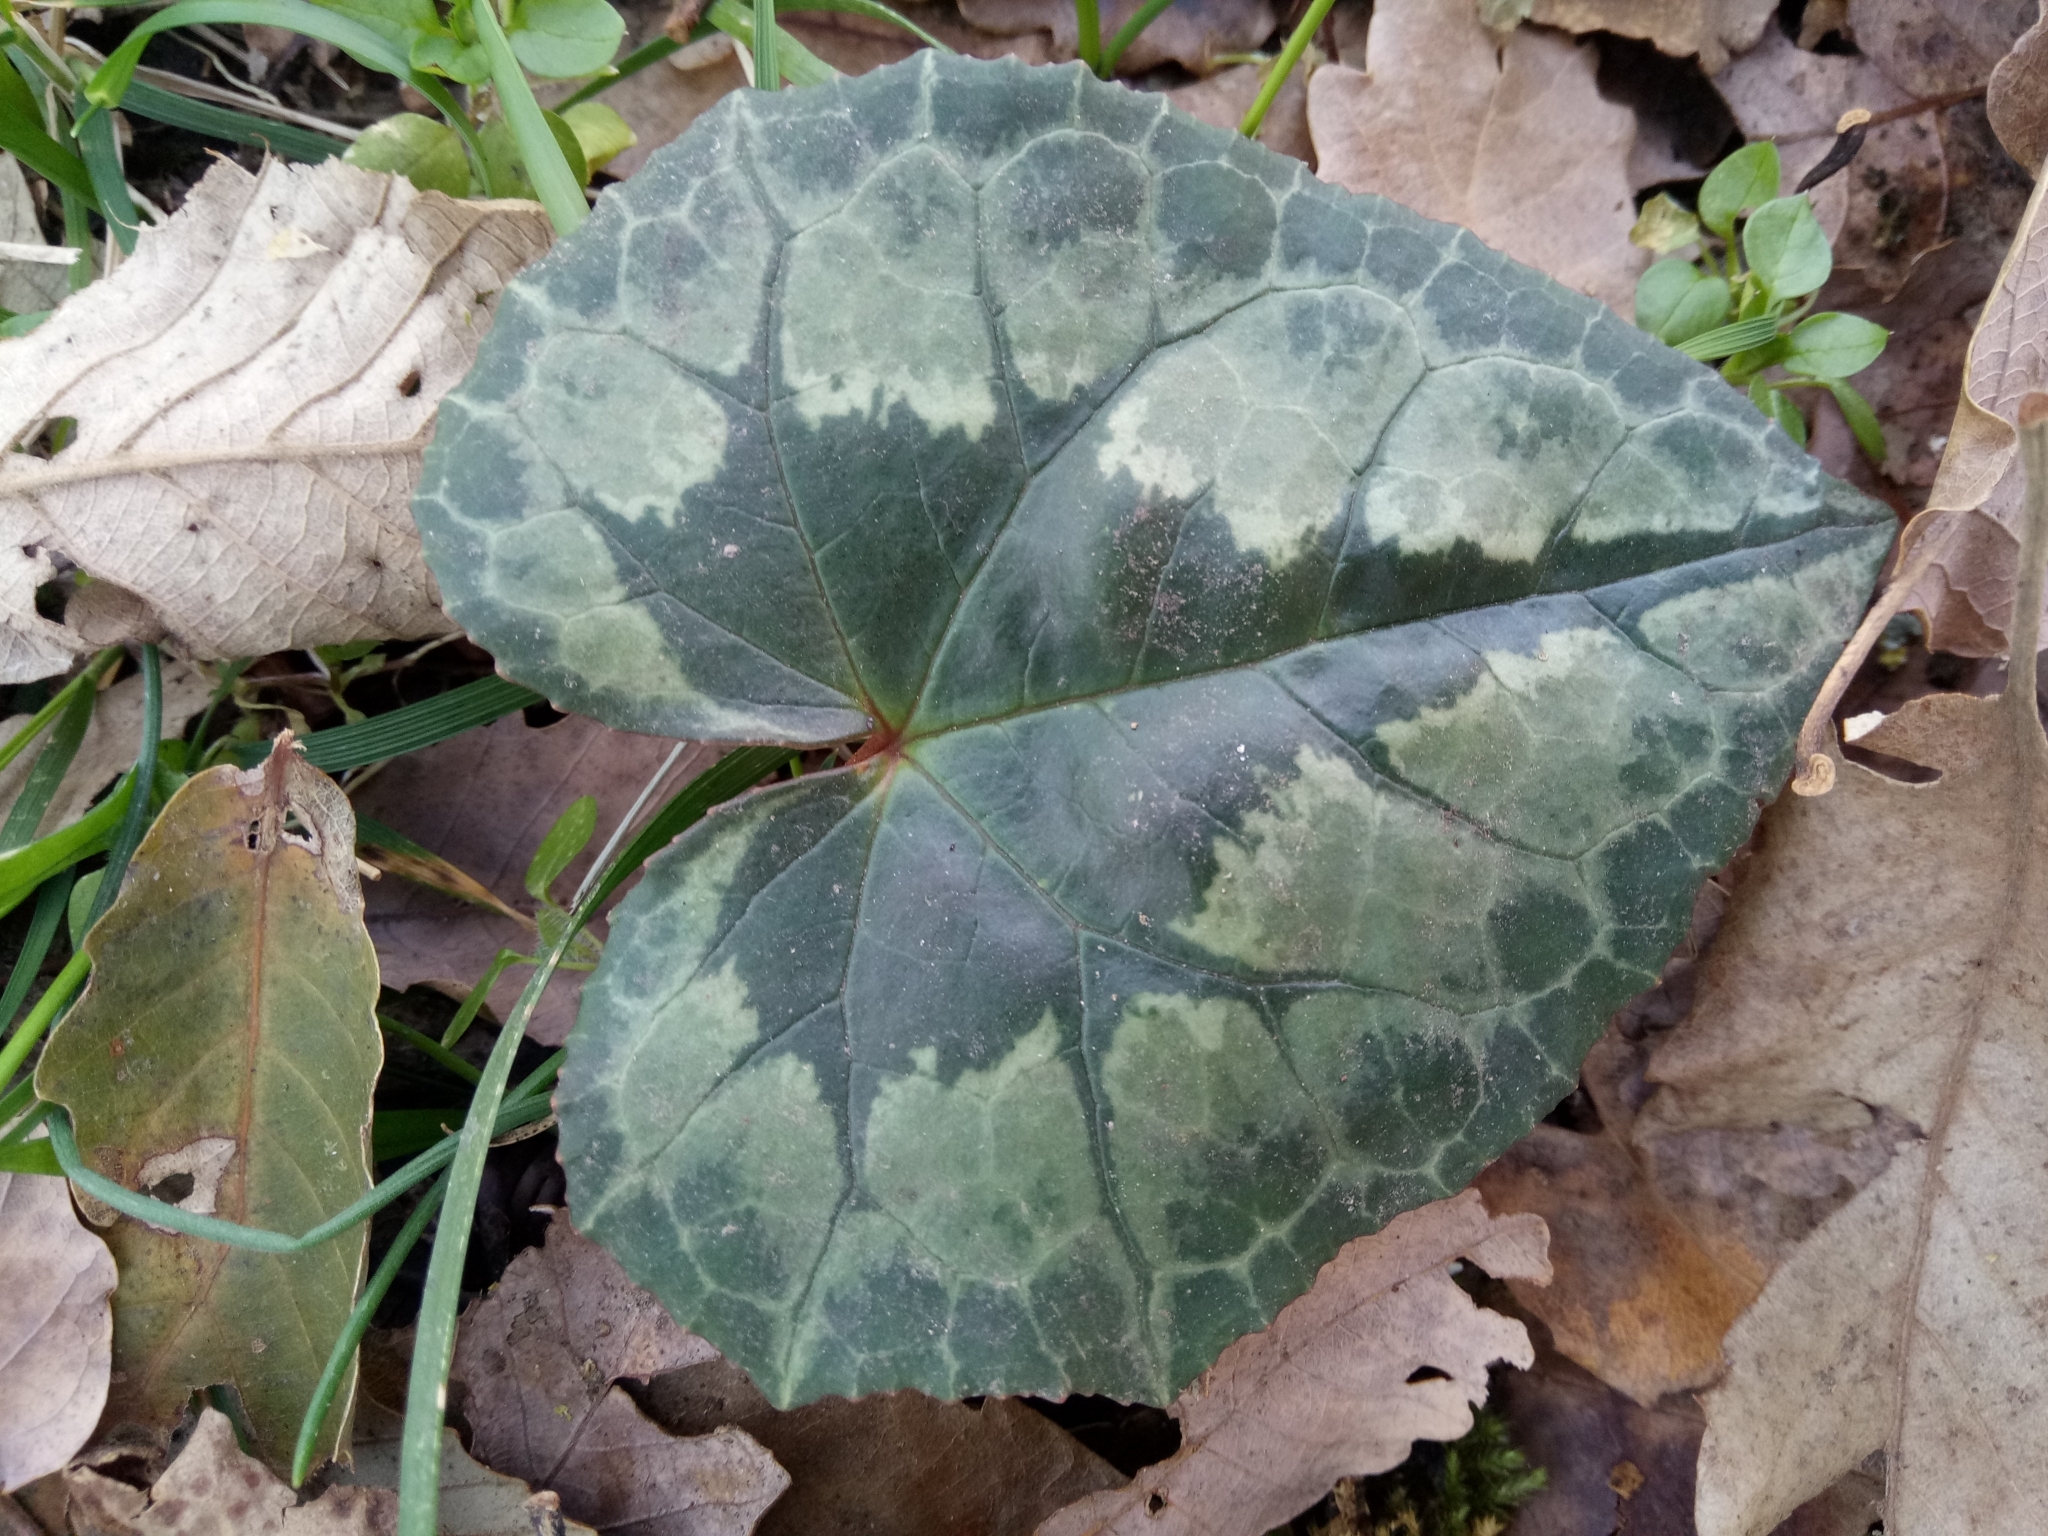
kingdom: Plantae
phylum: Tracheophyta
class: Magnoliopsida
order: Ericales
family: Primulaceae
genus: Cyclamen
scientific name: Cyclamen africanum
